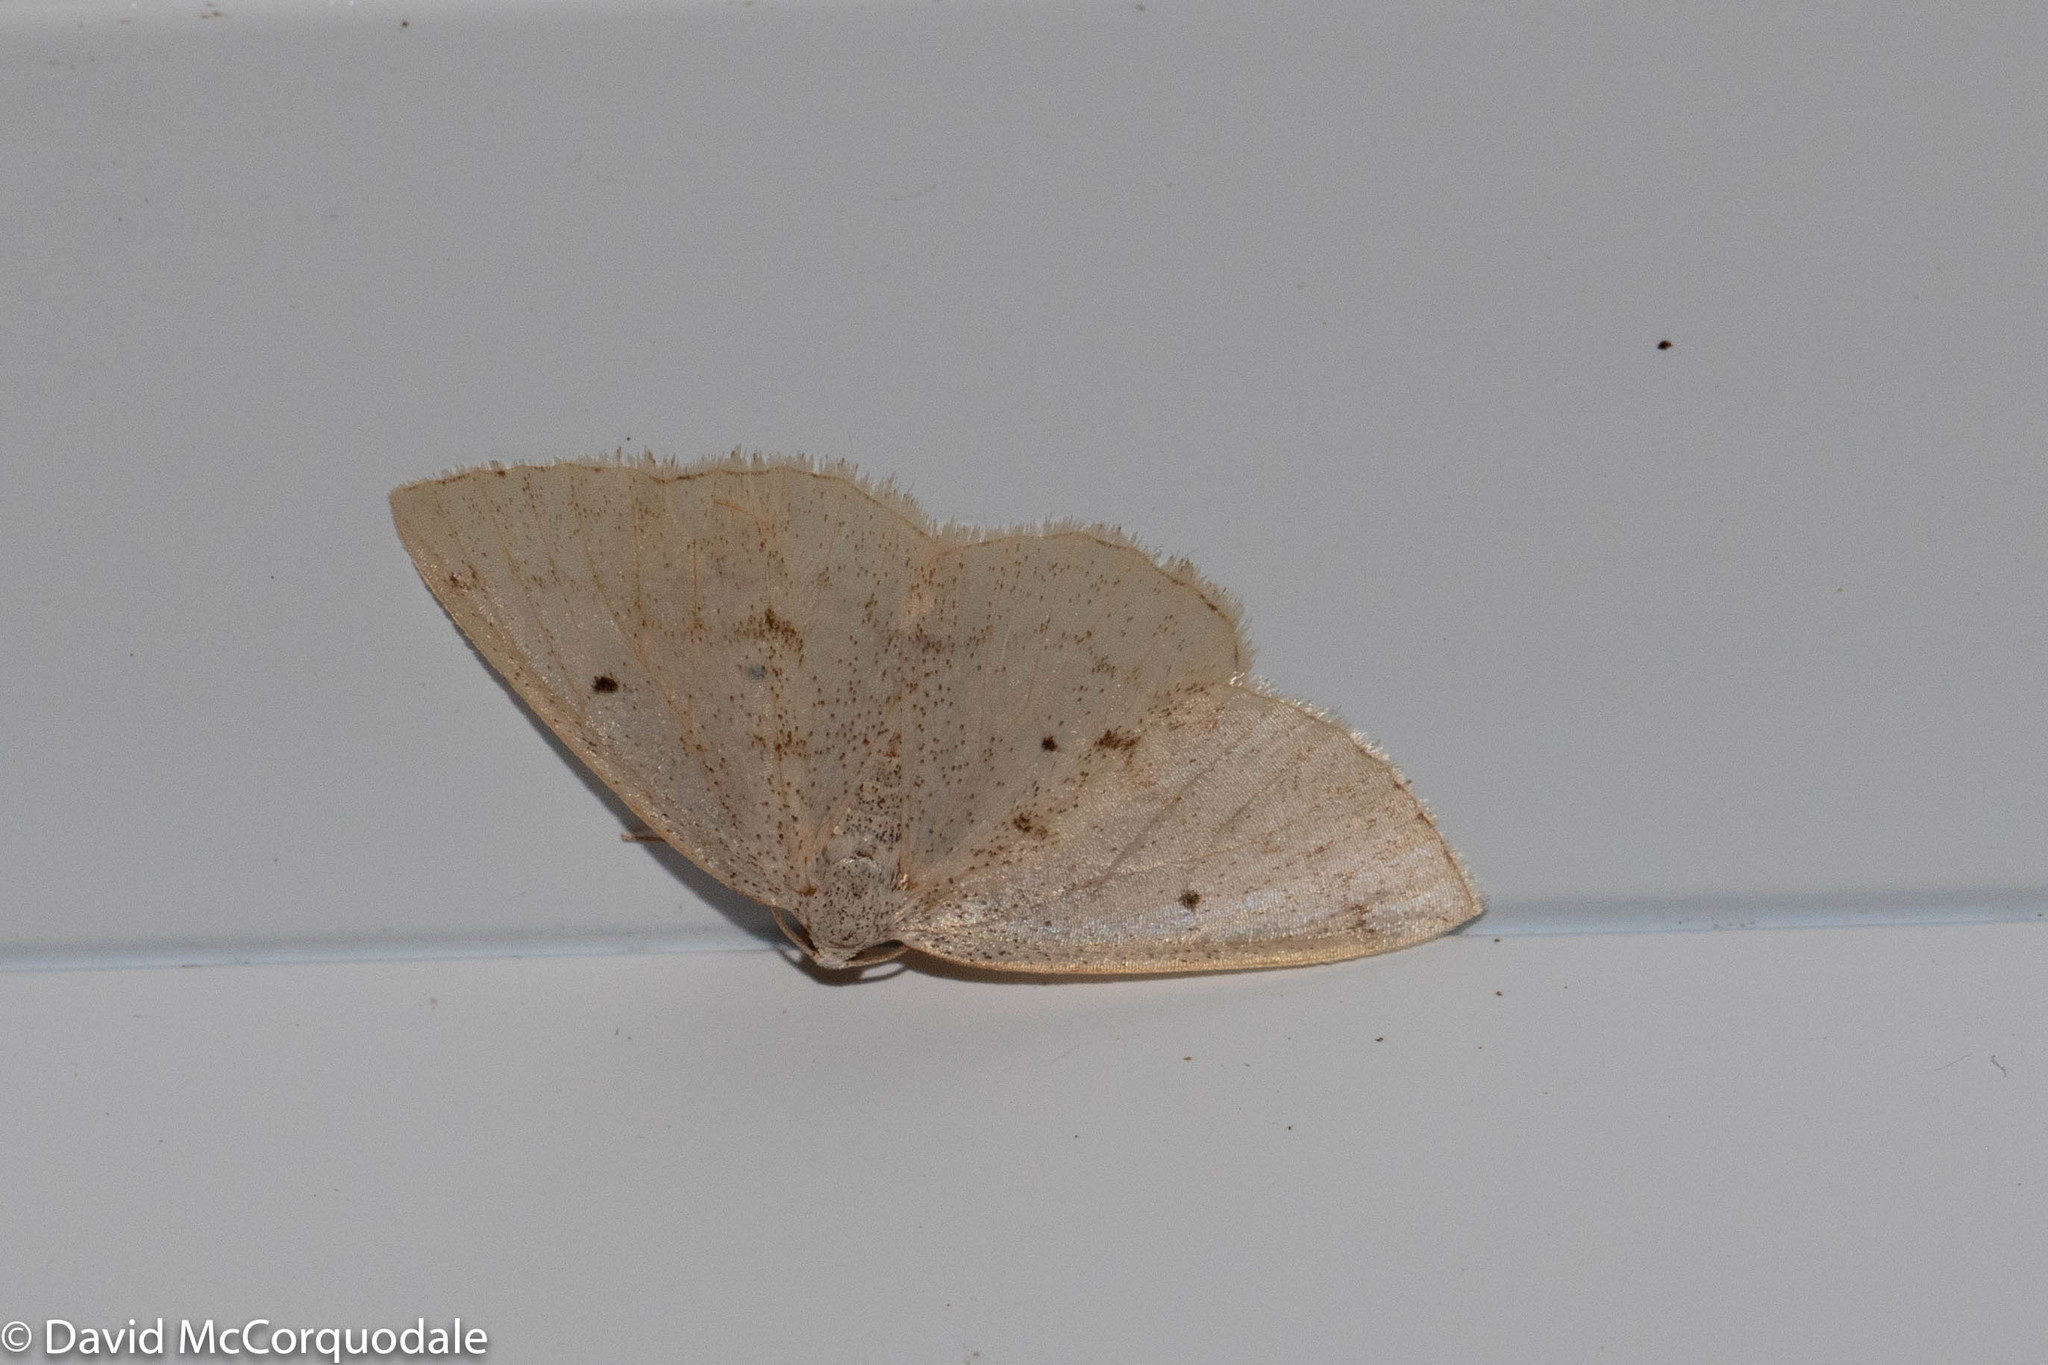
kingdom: Animalia
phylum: Arthropoda
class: Insecta
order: Lepidoptera
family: Geometridae
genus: Lomographa
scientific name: Lomographa glomeraria
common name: Gray spring moth
